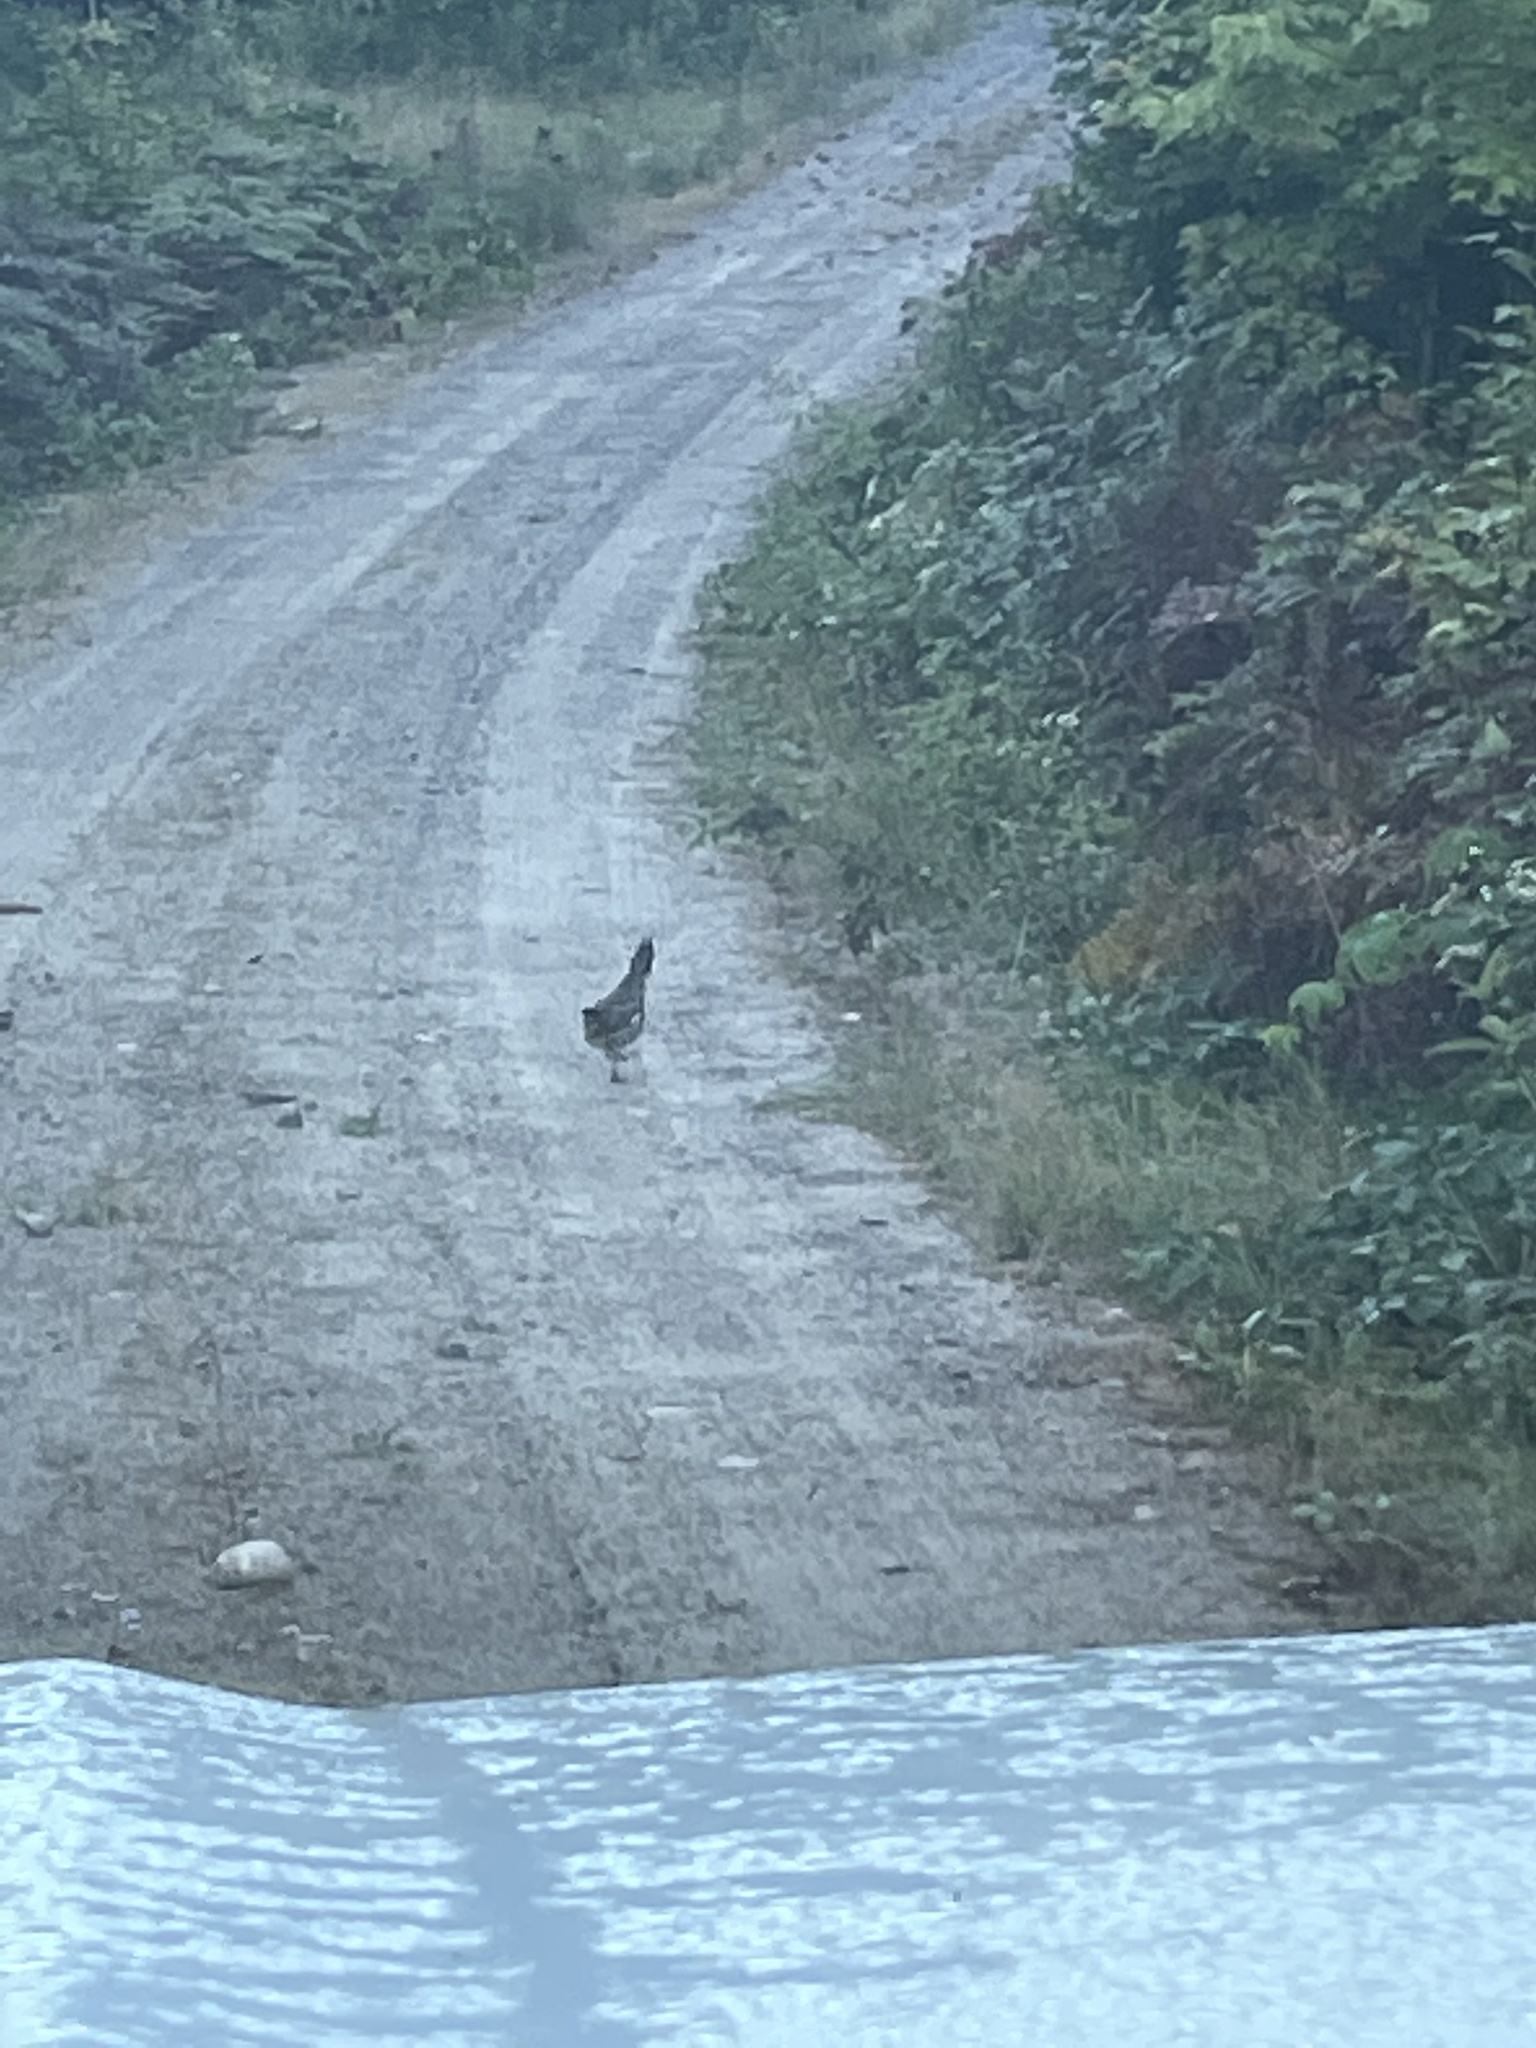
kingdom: Animalia
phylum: Chordata
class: Aves
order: Galliformes
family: Phasianidae
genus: Bonasa
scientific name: Bonasa umbellus
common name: Ruffed grouse
